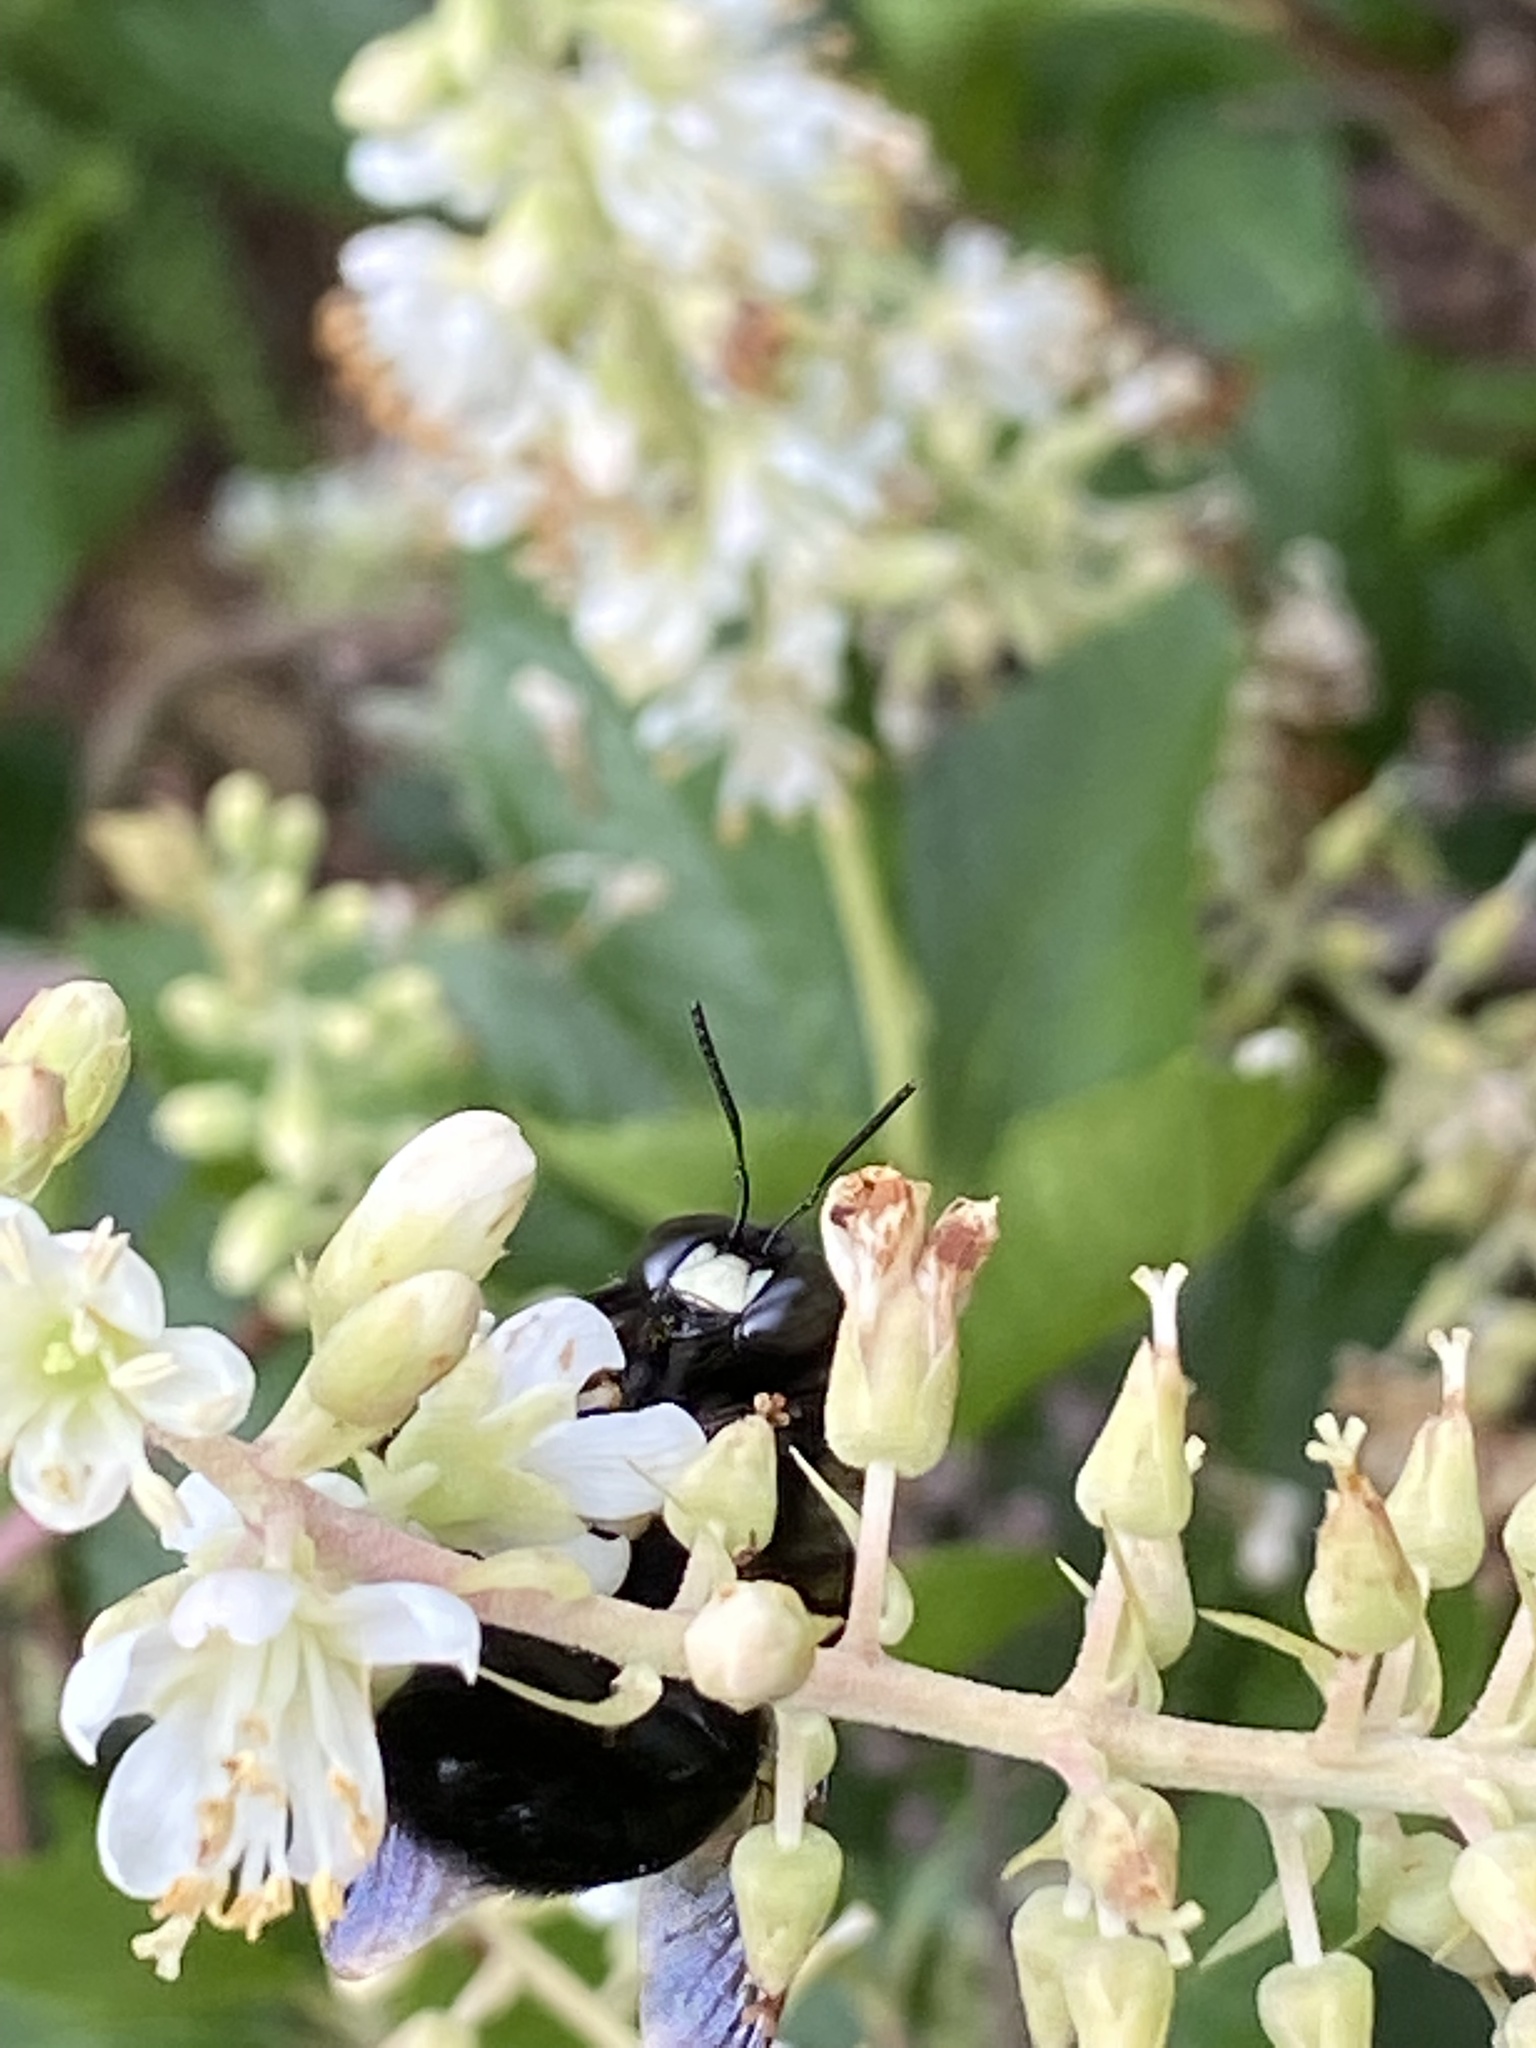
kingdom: Animalia
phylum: Arthropoda
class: Insecta
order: Hymenoptera
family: Apidae
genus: Xylocopa
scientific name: Xylocopa virginica
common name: Carpenter bee
